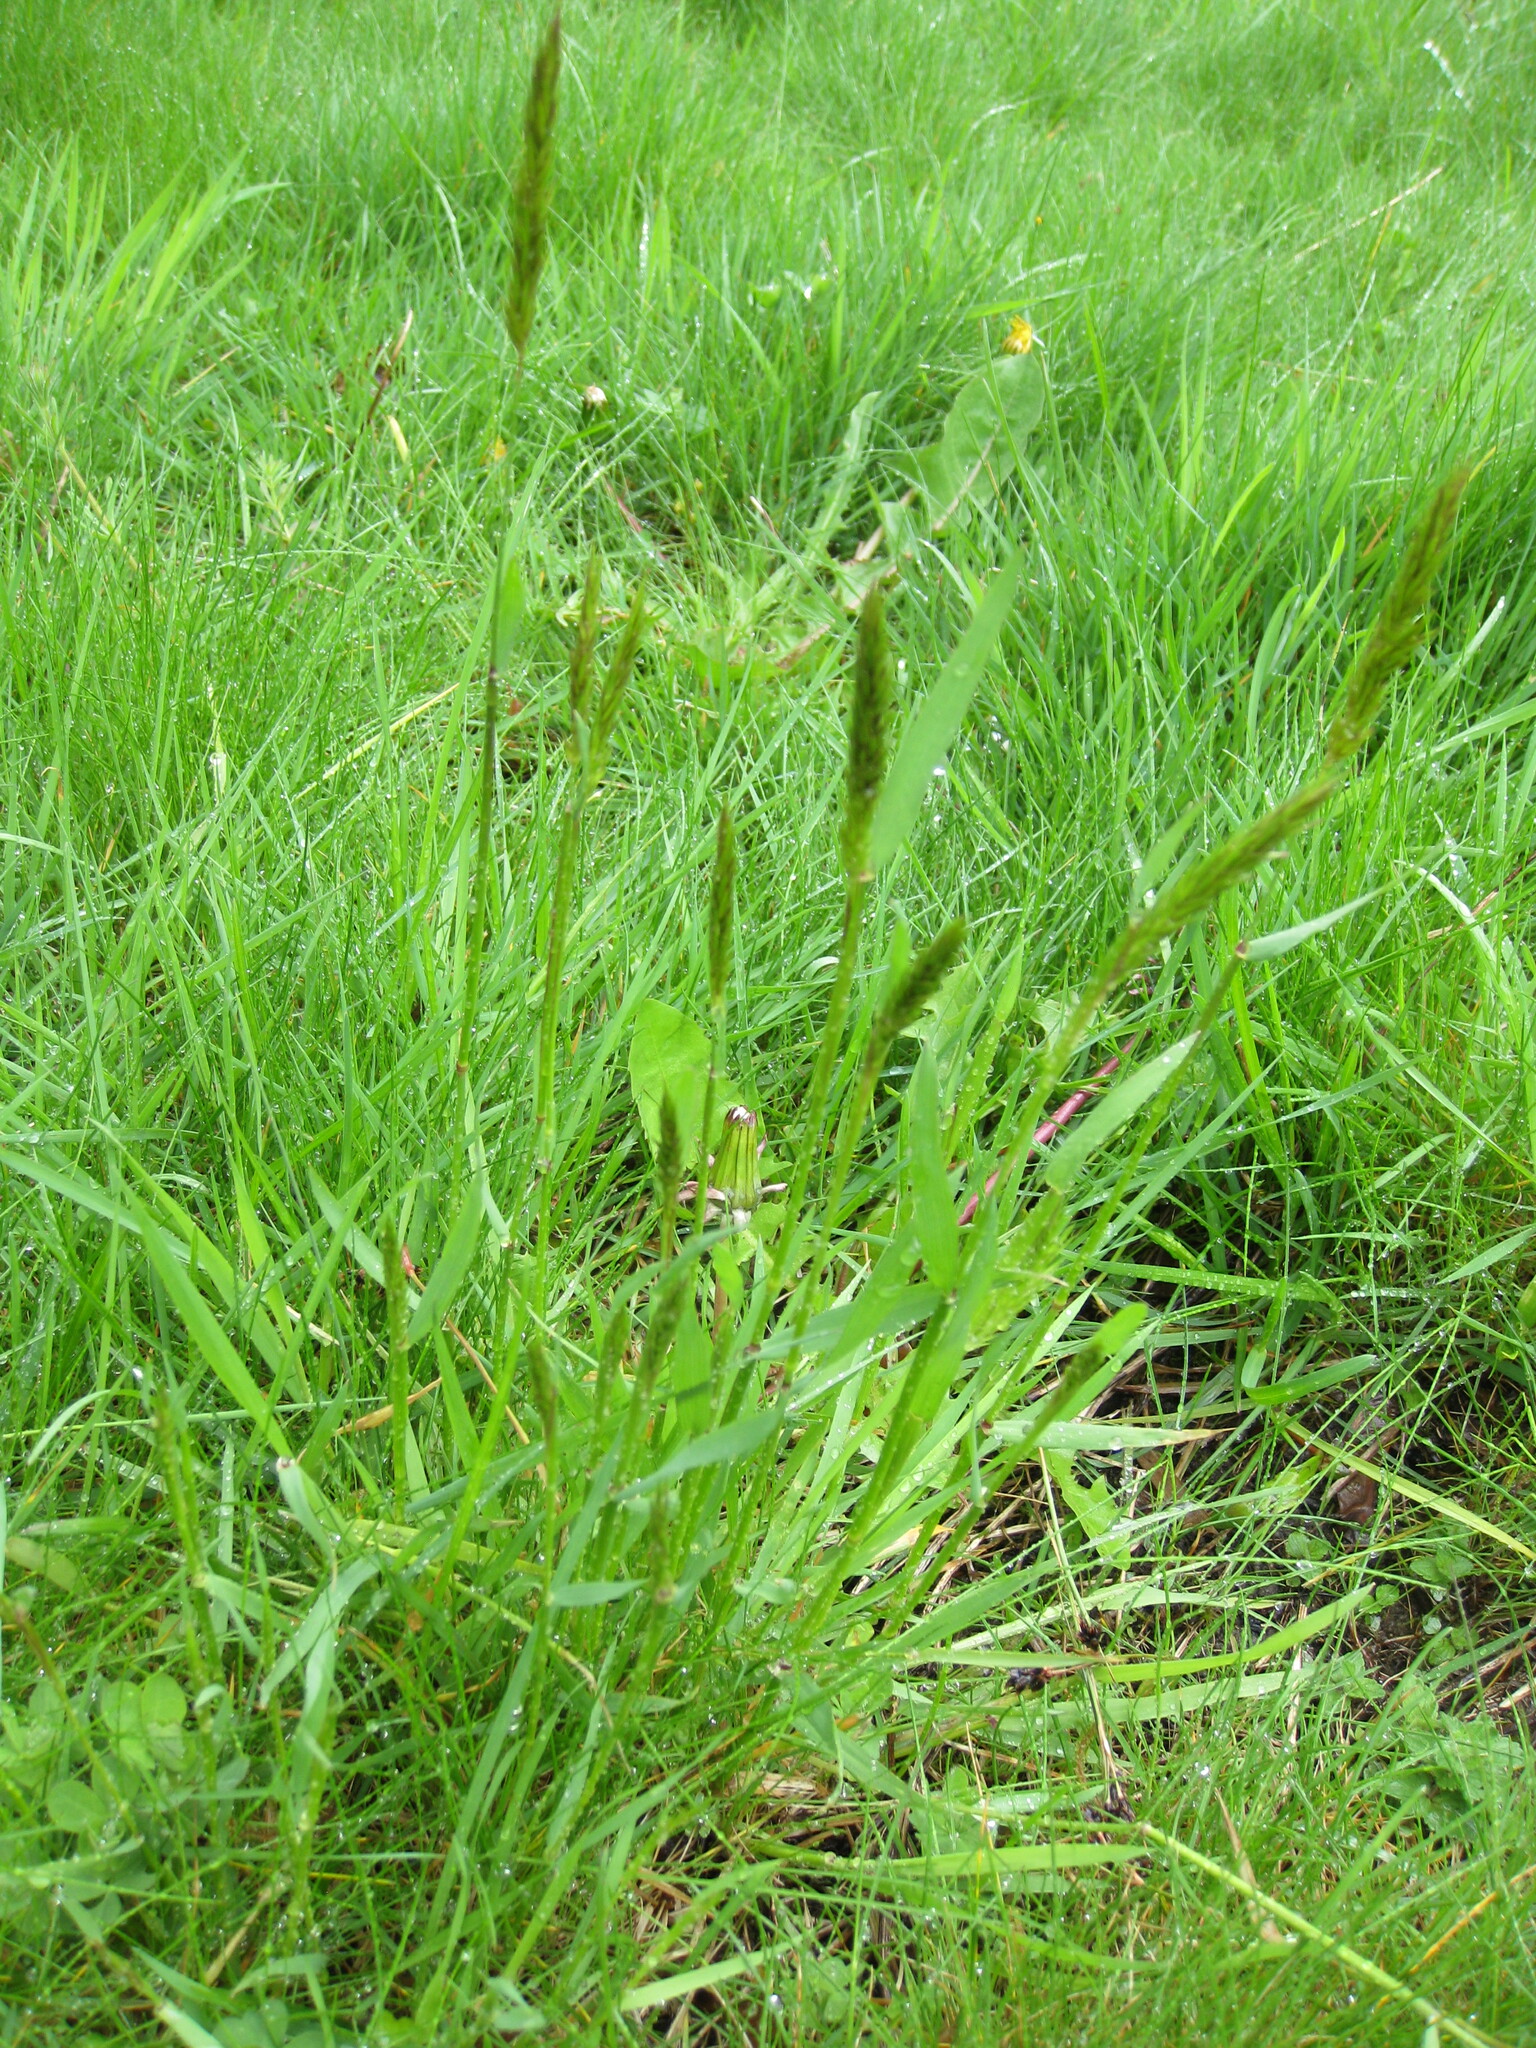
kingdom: Plantae
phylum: Tracheophyta
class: Liliopsida
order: Poales
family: Poaceae
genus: Anthoxanthum
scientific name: Anthoxanthum odoratum
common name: Sweet vernalgrass
